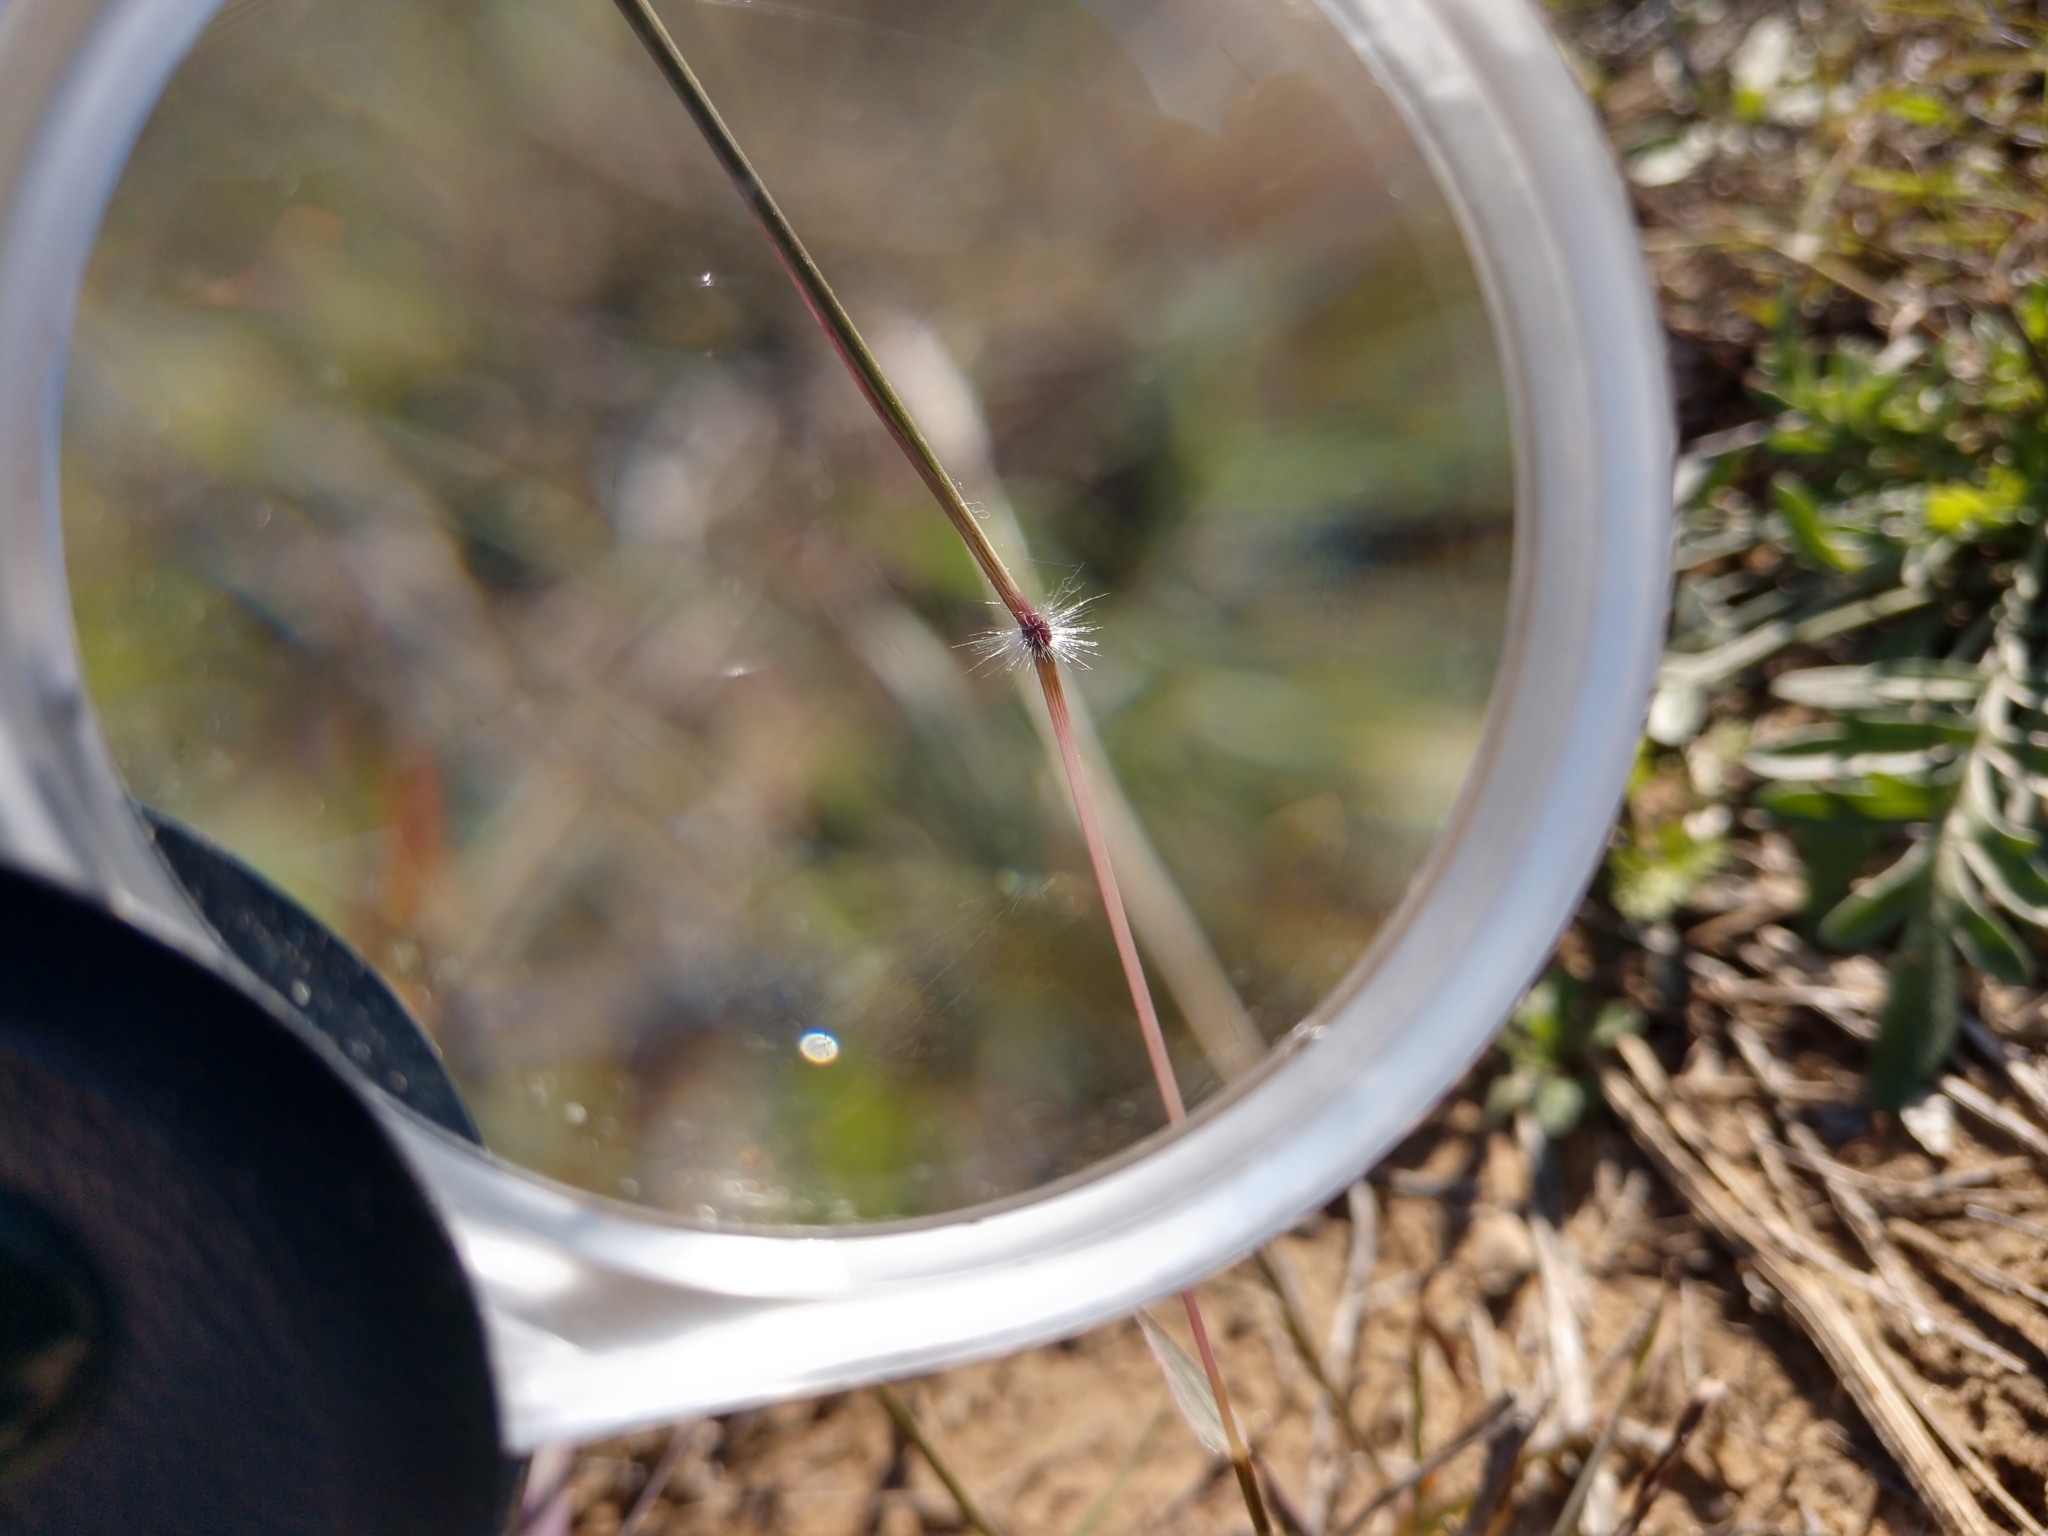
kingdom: Plantae
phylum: Tracheophyta
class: Liliopsida
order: Poales
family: Poaceae
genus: Dichanthium
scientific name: Dichanthium annulatum
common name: Kleberg's bluestem
